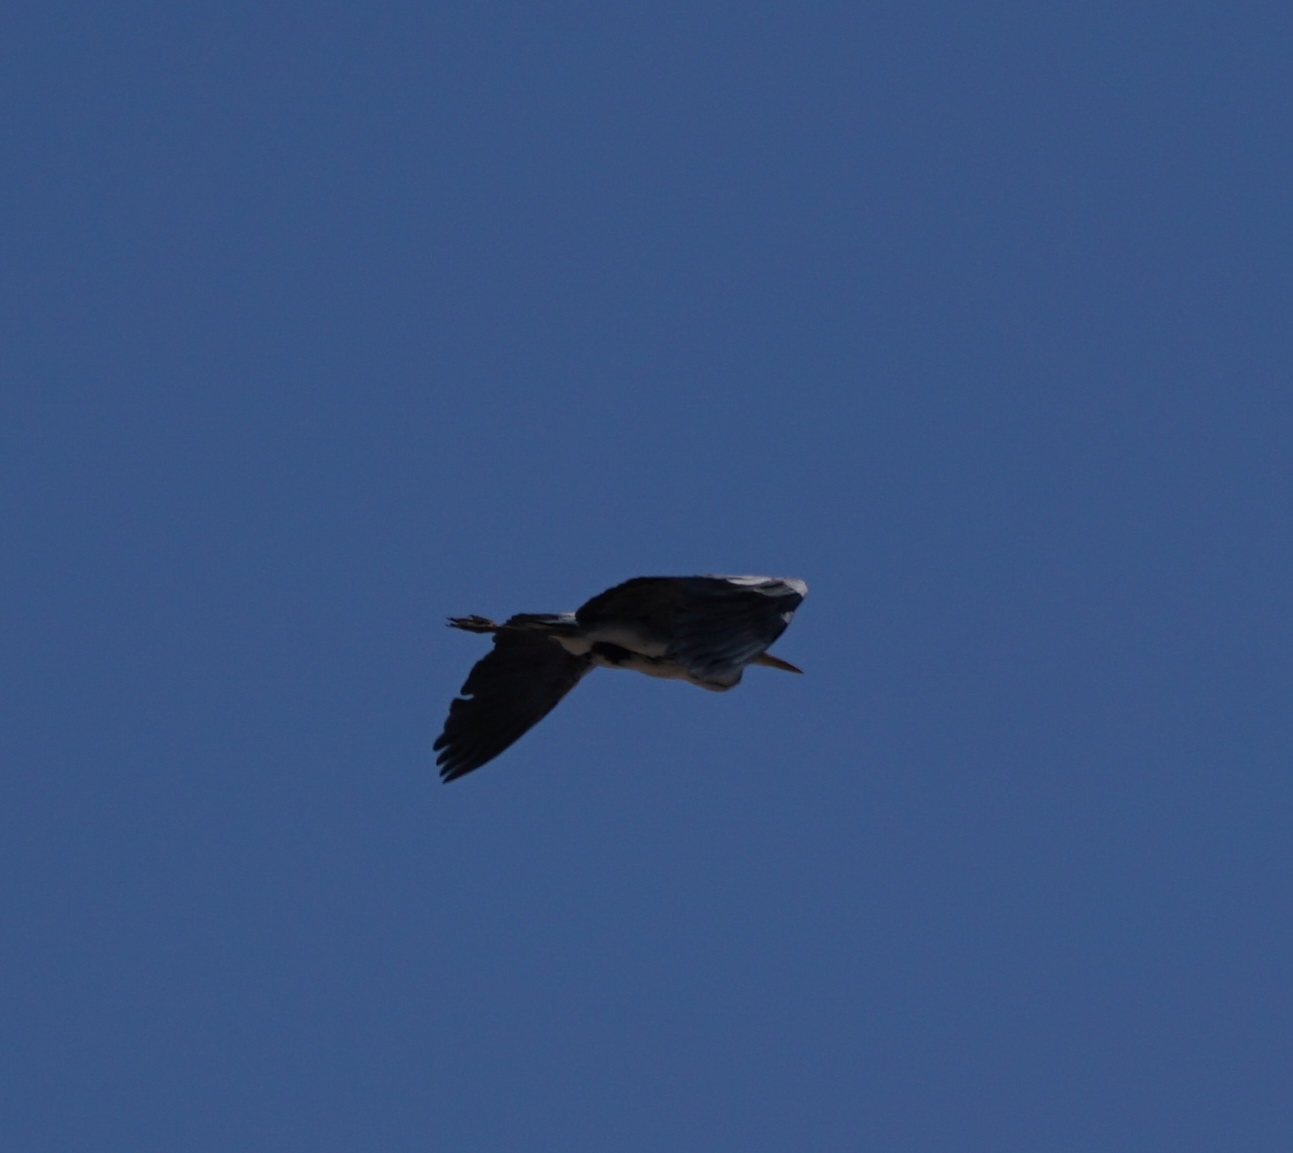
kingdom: Animalia
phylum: Chordata
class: Aves
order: Pelecaniformes
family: Ardeidae
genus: Ardea
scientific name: Ardea cinerea
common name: Grey heron
